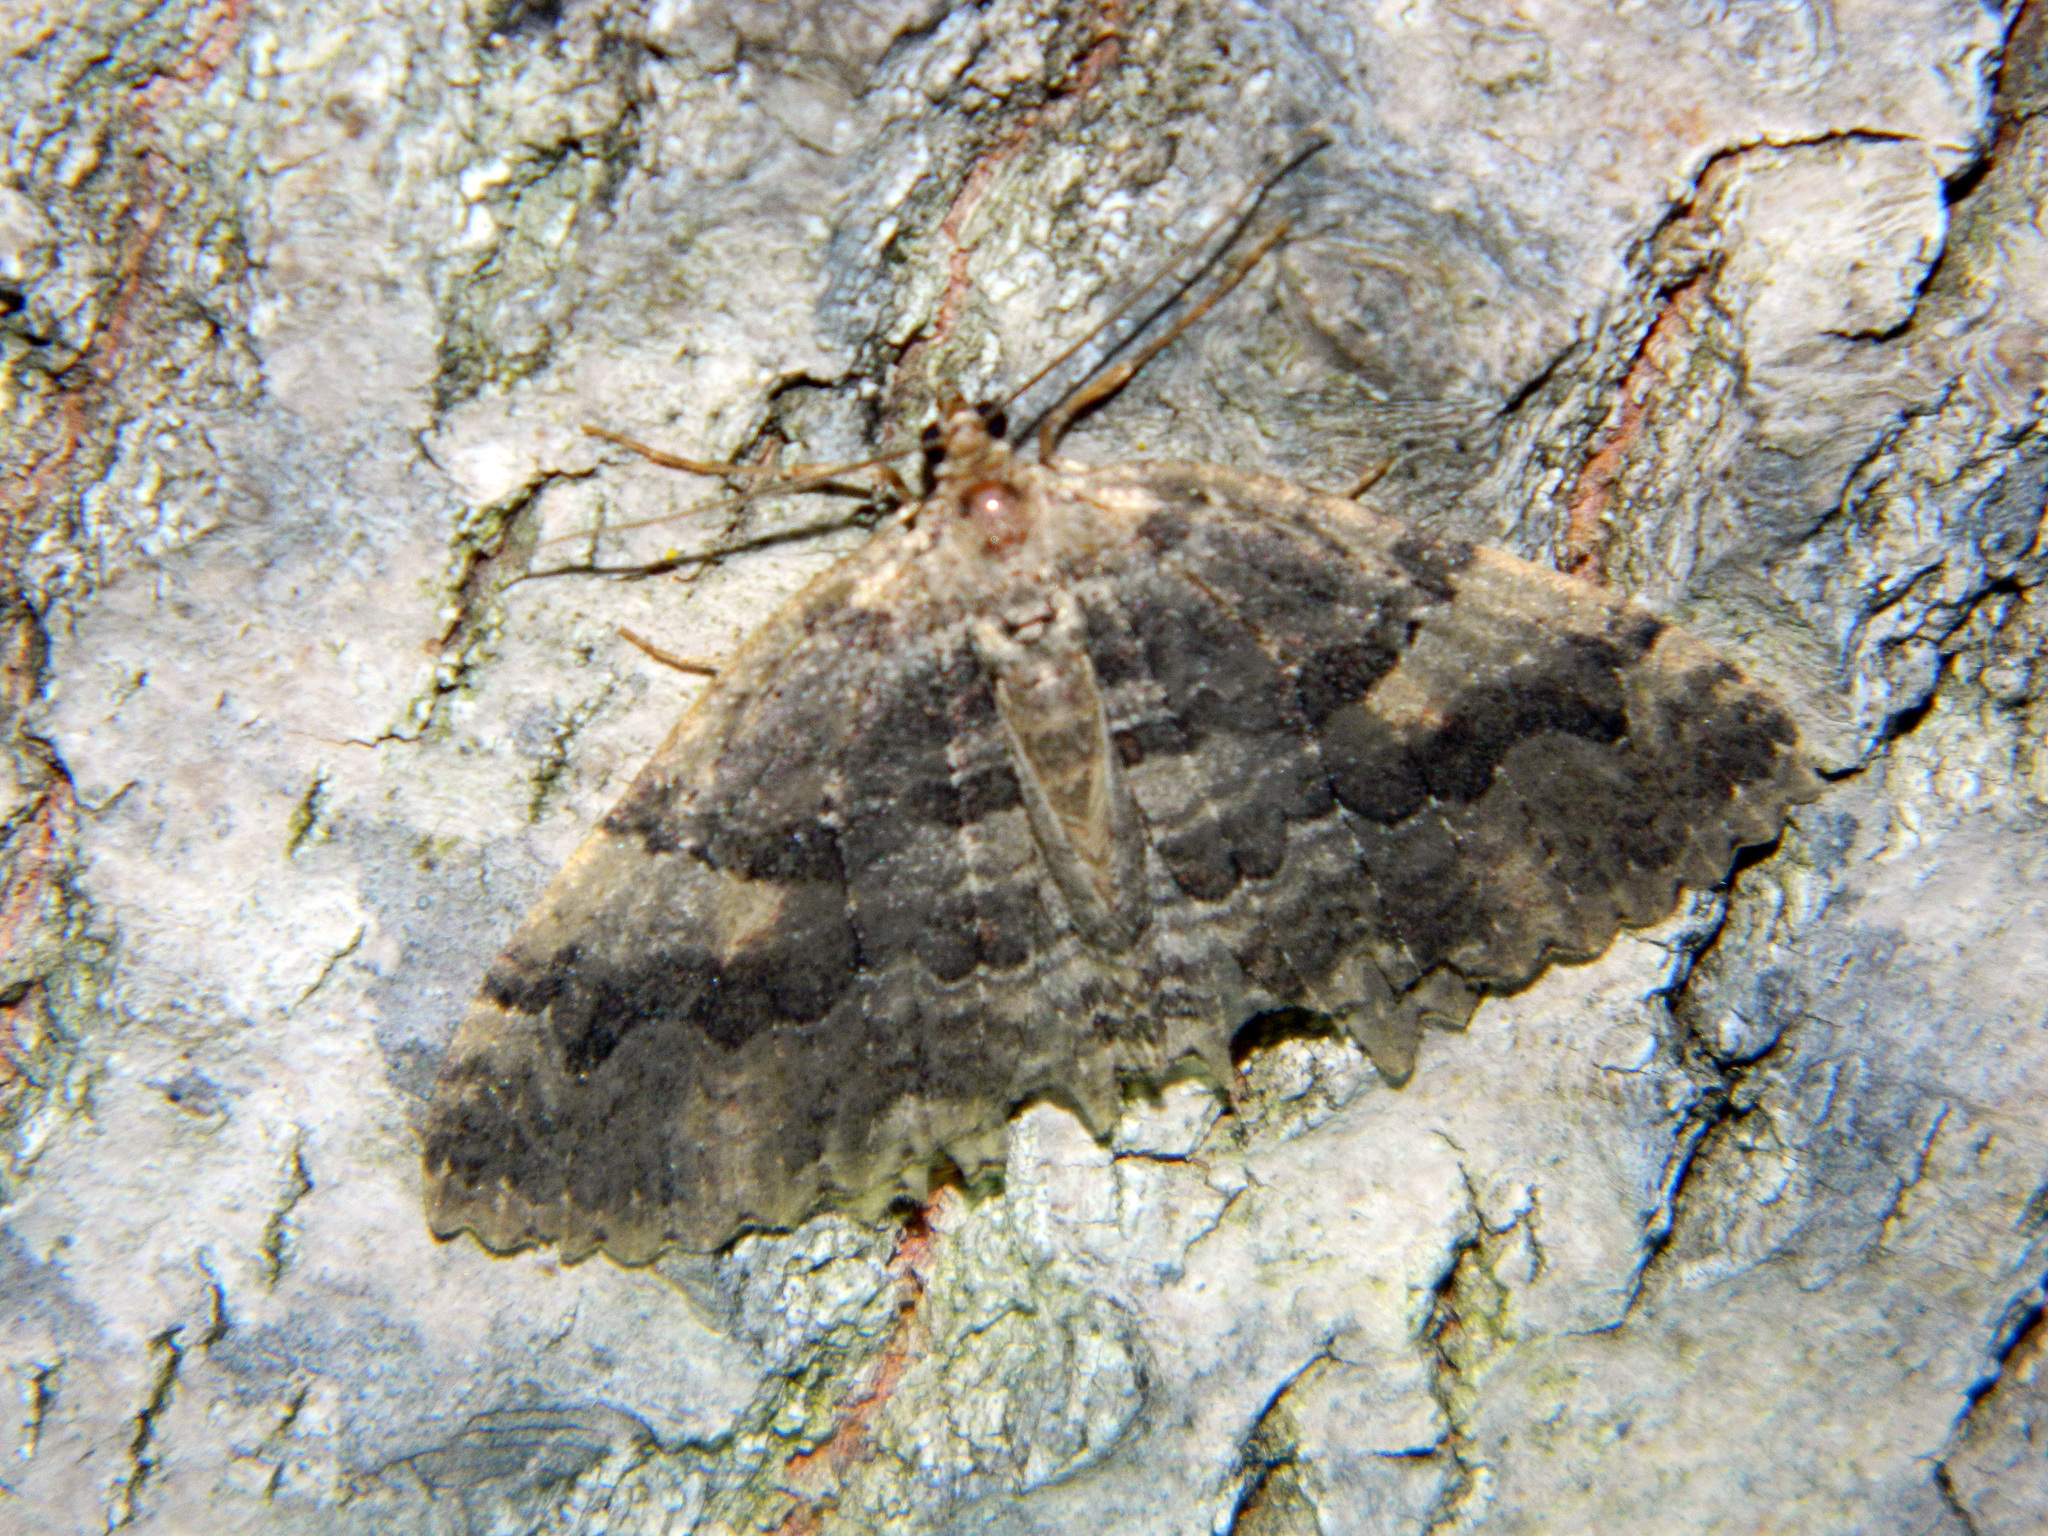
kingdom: Animalia
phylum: Arthropoda
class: Insecta
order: Lepidoptera
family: Geometridae
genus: Triphosa
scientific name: Triphosa haesitata
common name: Tissue moth
